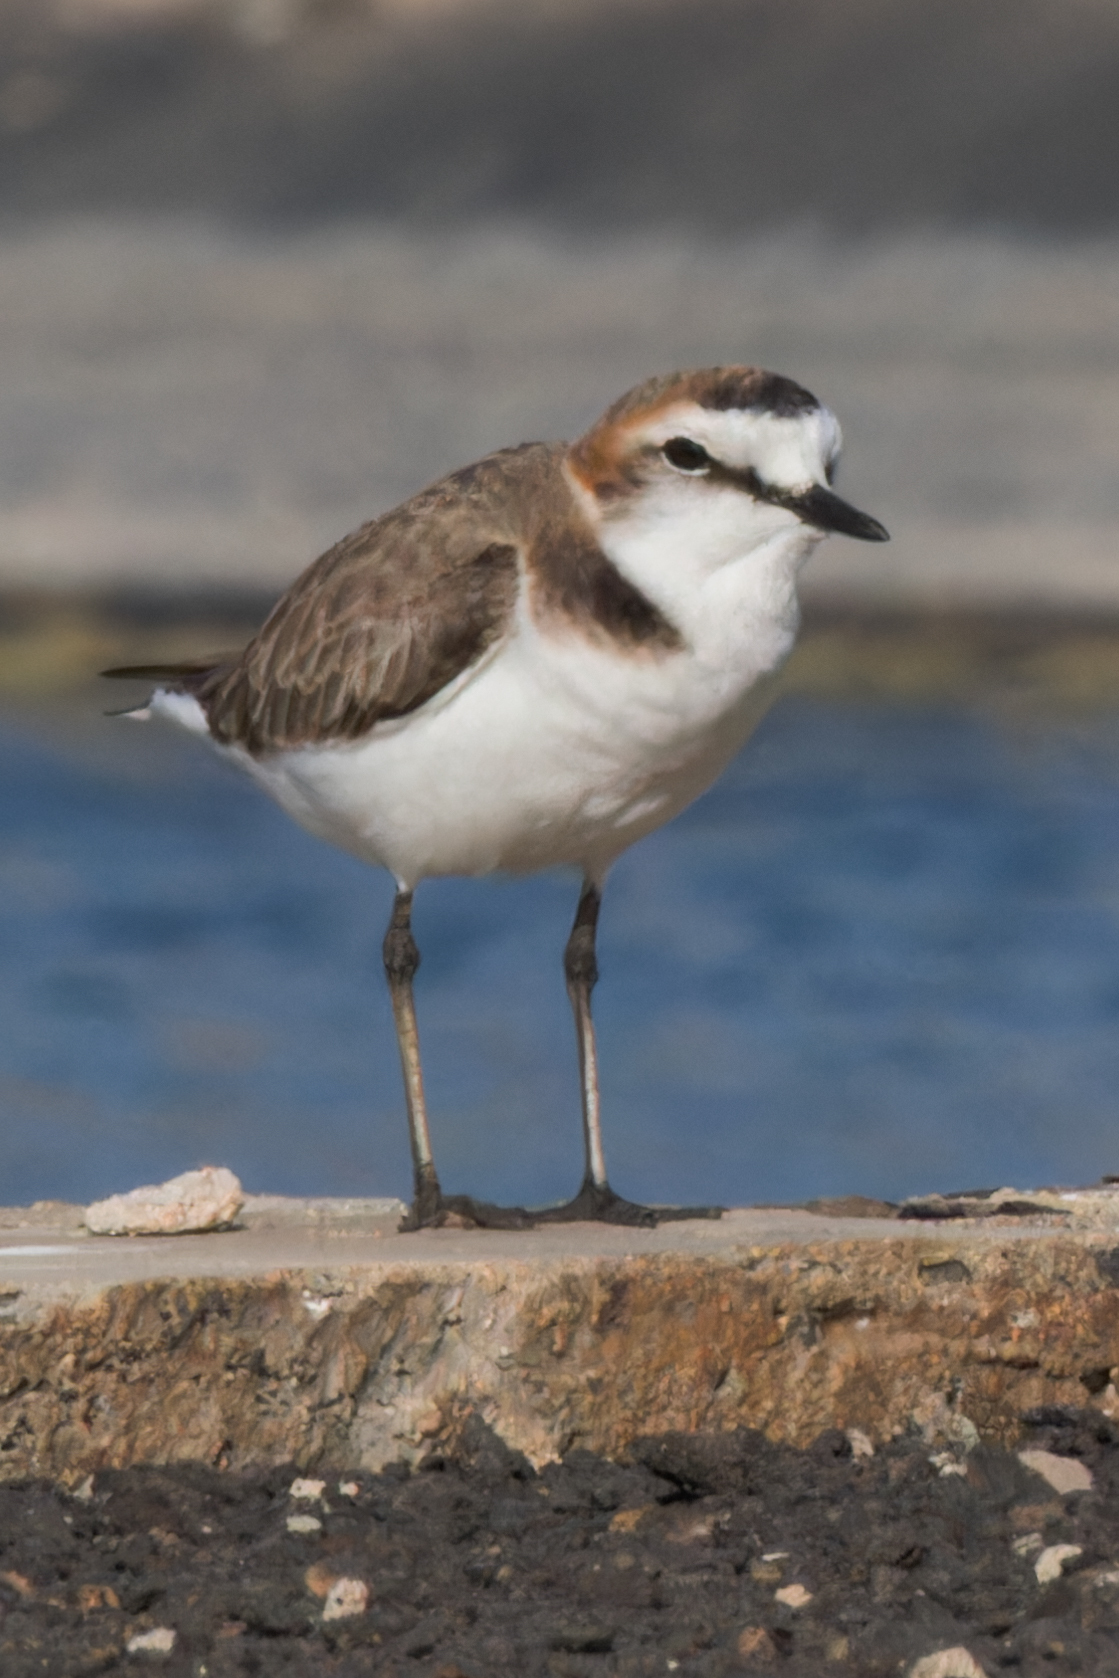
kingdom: Animalia
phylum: Chordata
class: Aves
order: Charadriiformes
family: Charadriidae
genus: Charadrius
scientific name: Charadrius alexandrinus
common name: Kentish plover
